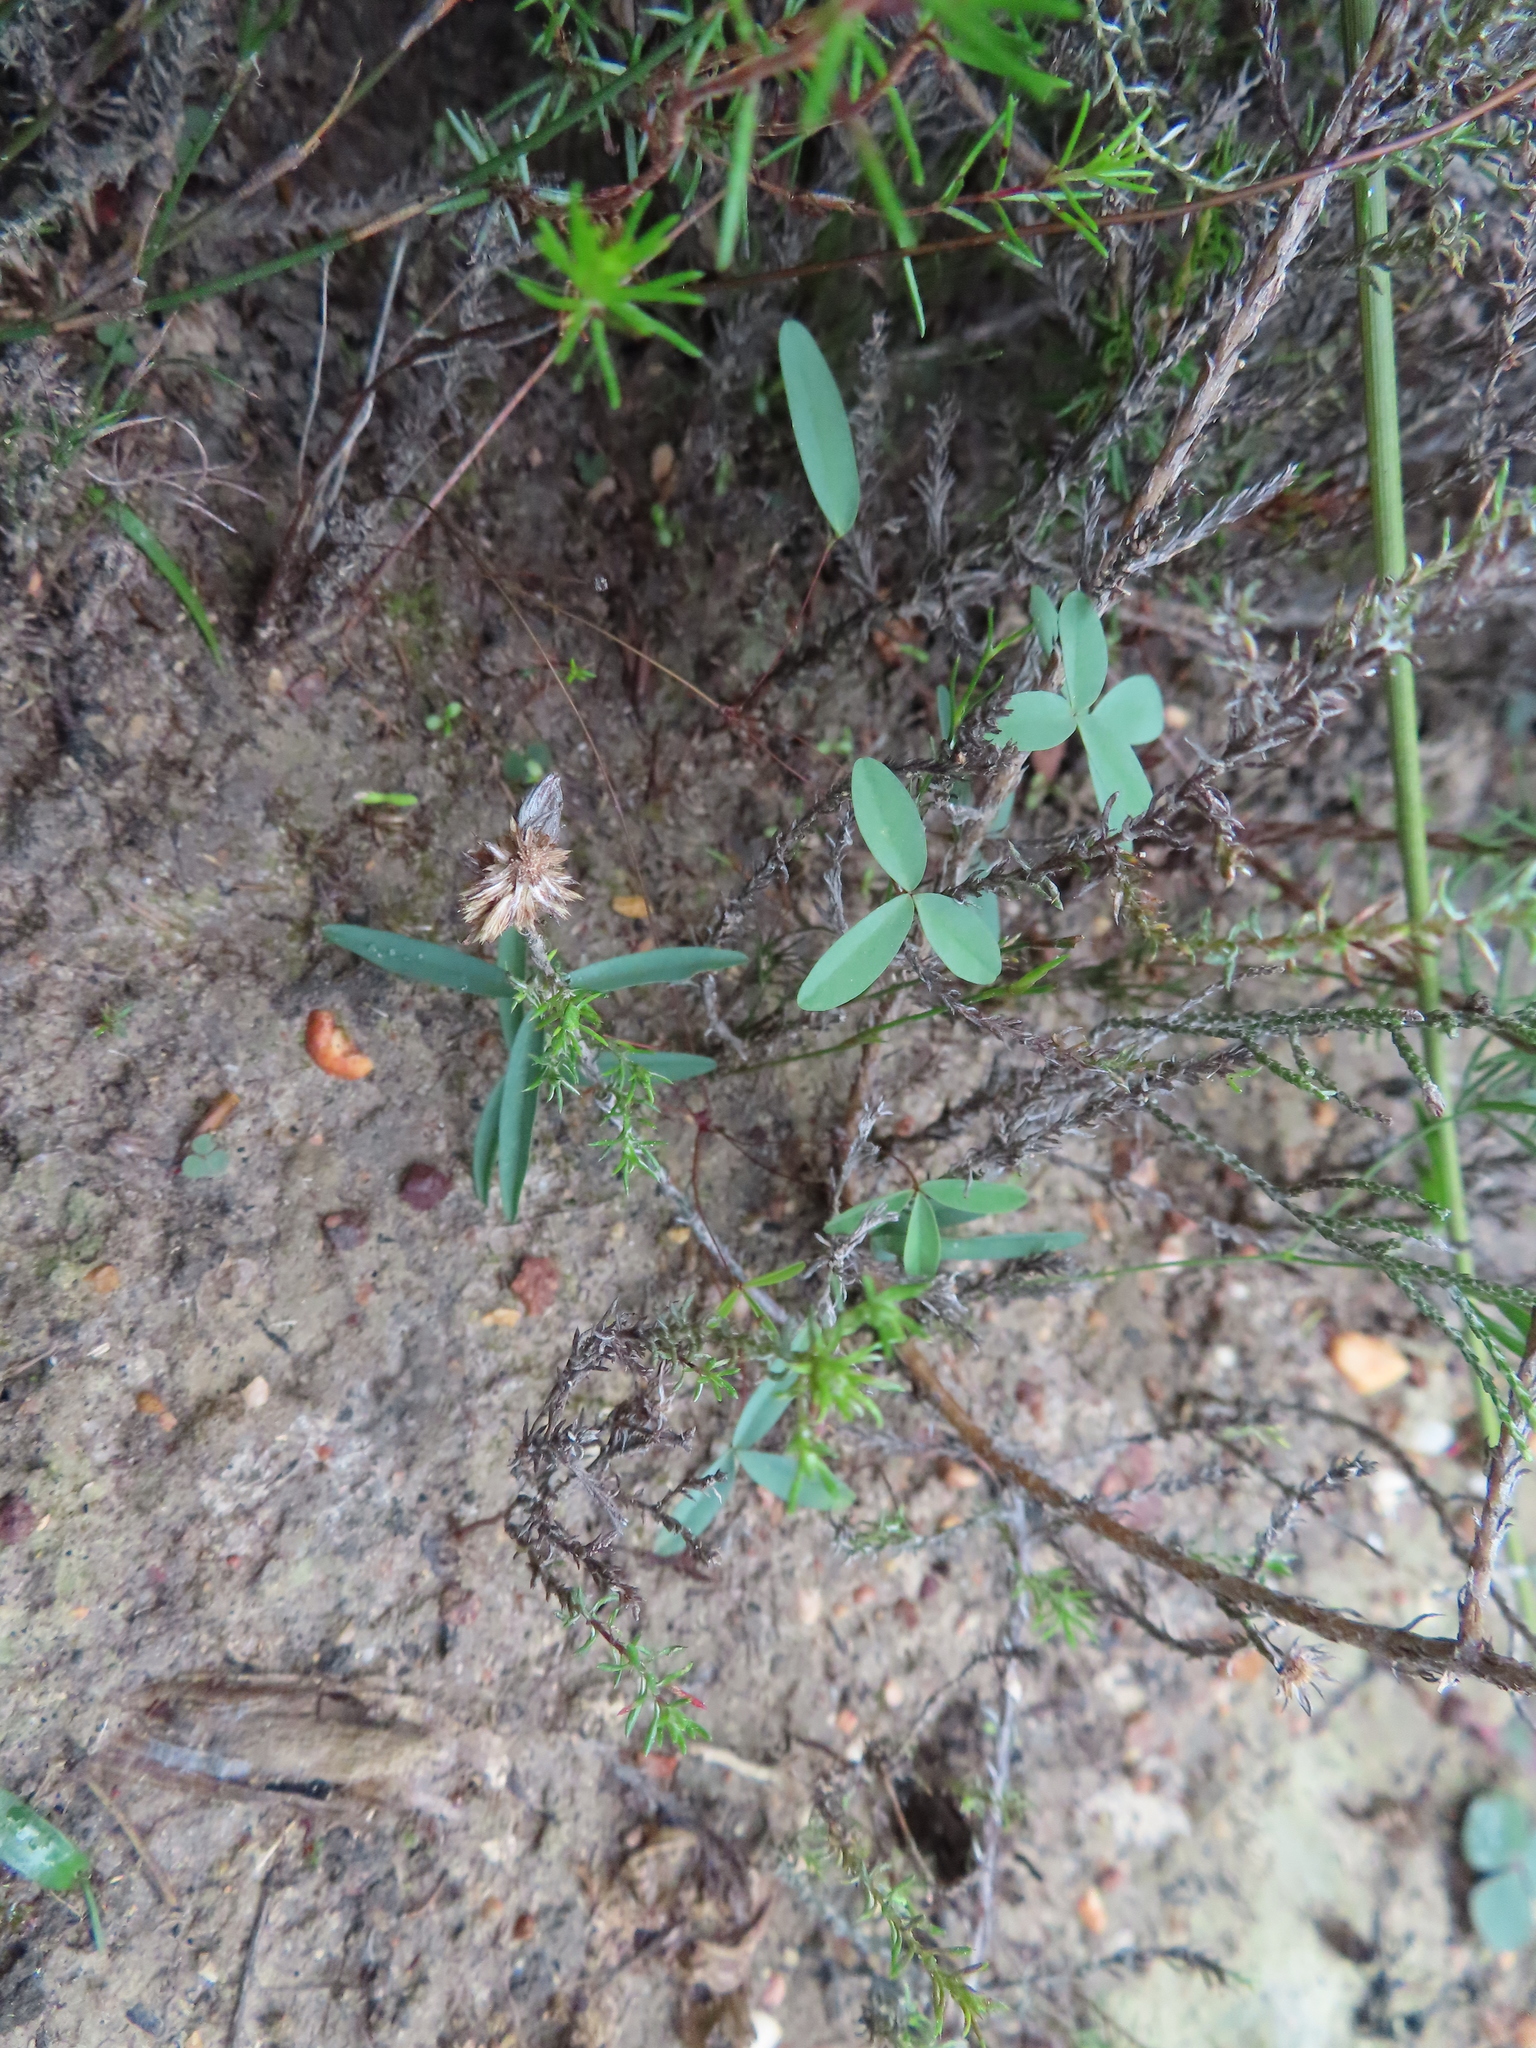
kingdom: Plantae
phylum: Tracheophyta
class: Magnoliopsida
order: Oxalidales
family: Oxalidaceae
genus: Oxalis
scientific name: Oxalis duriuscula
